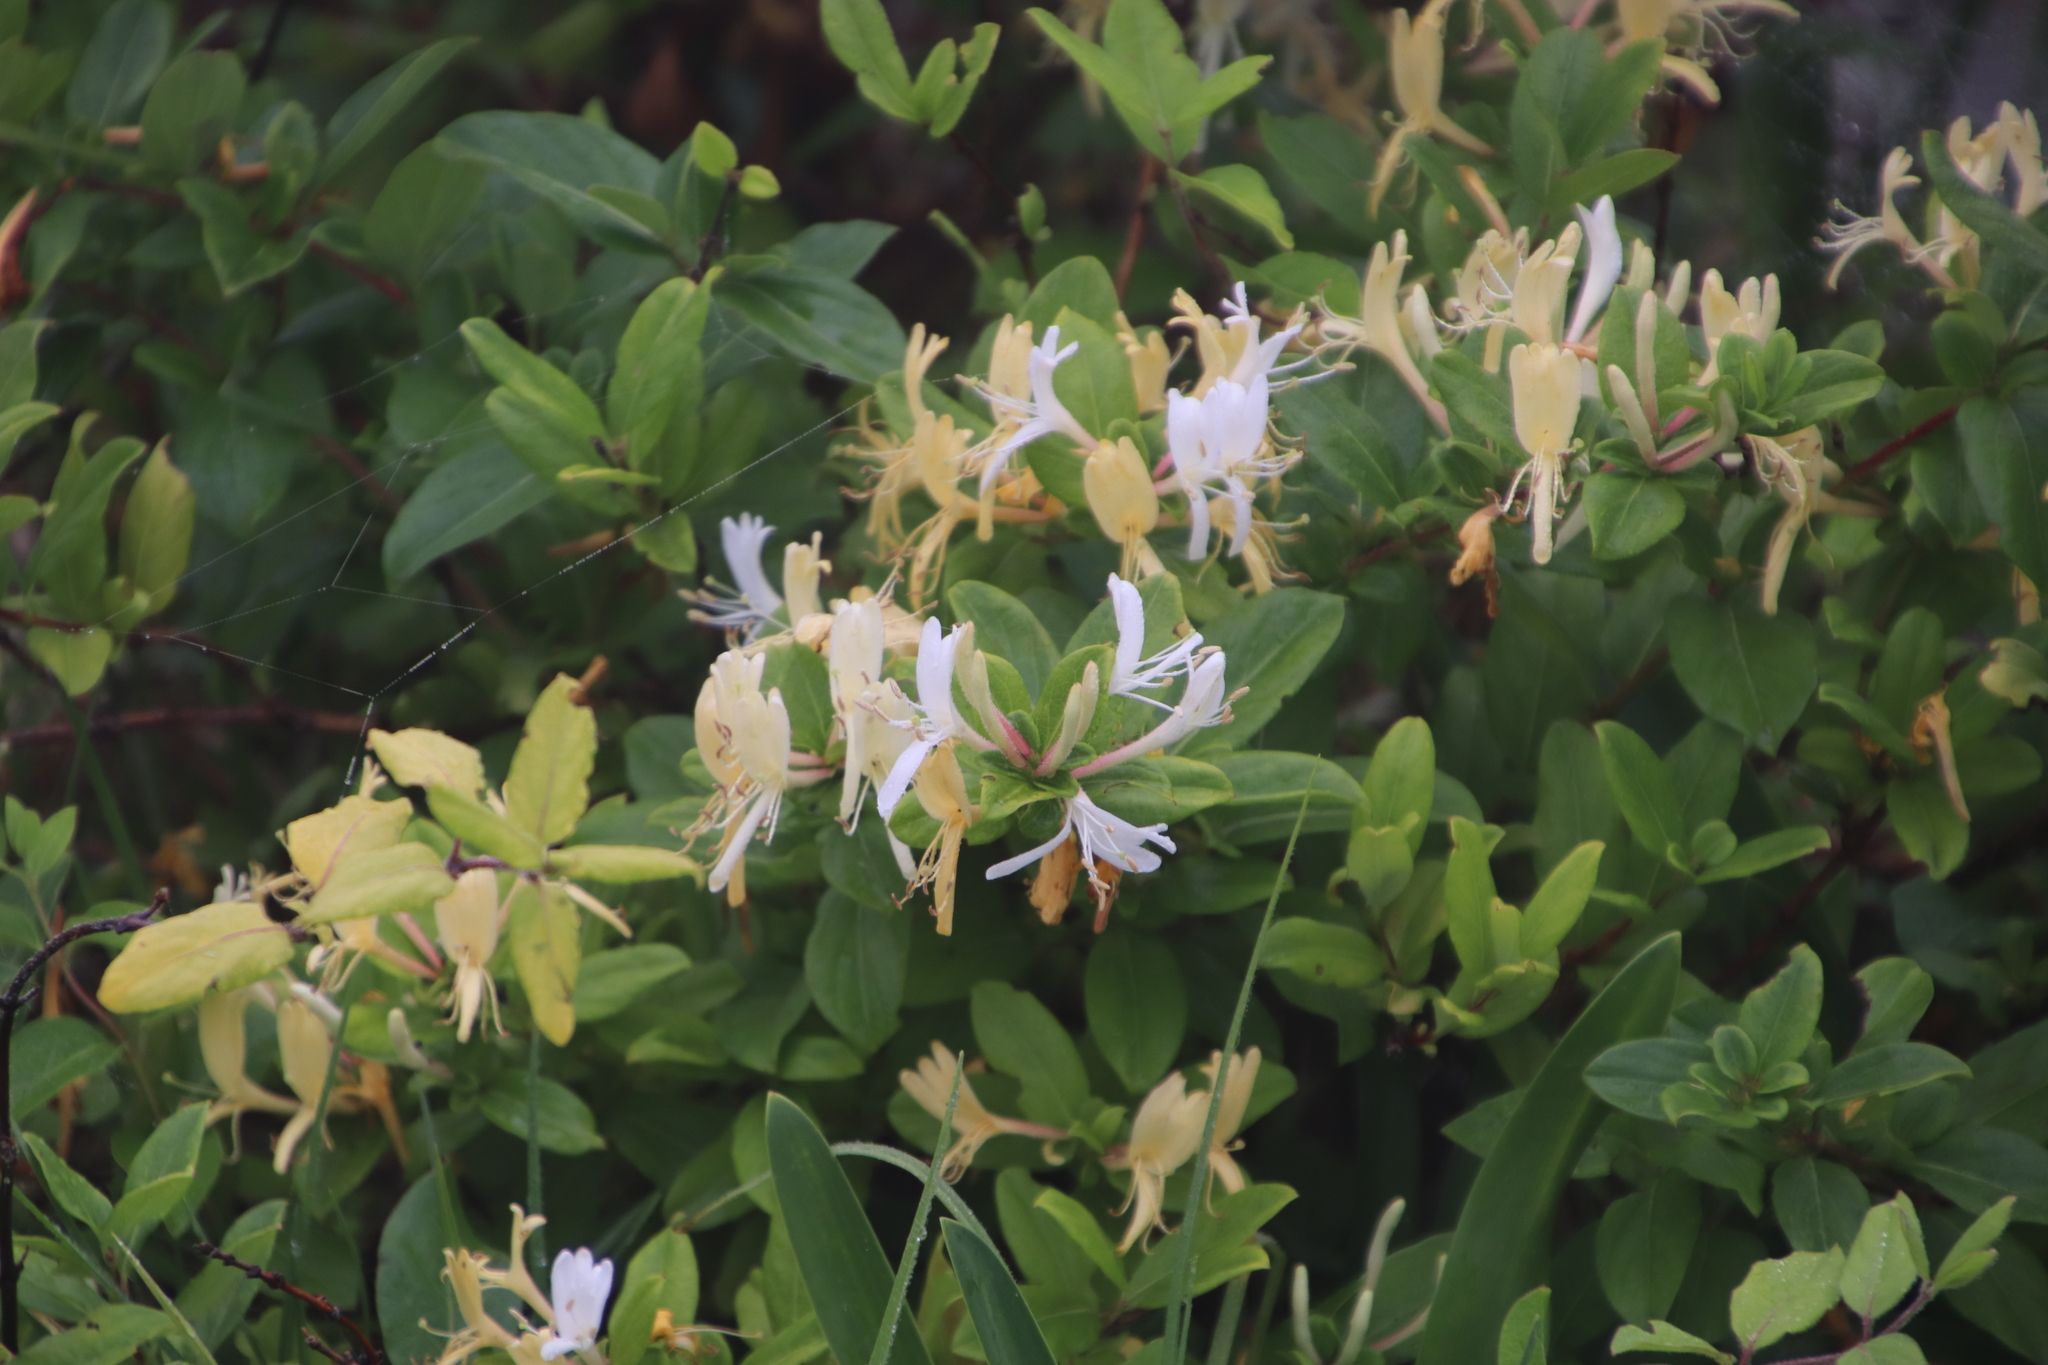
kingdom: Plantae
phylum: Tracheophyta
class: Magnoliopsida
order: Dipsacales
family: Caprifoliaceae
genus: Lonicera
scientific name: Lonicera japonica
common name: Japanese honeysuckle
